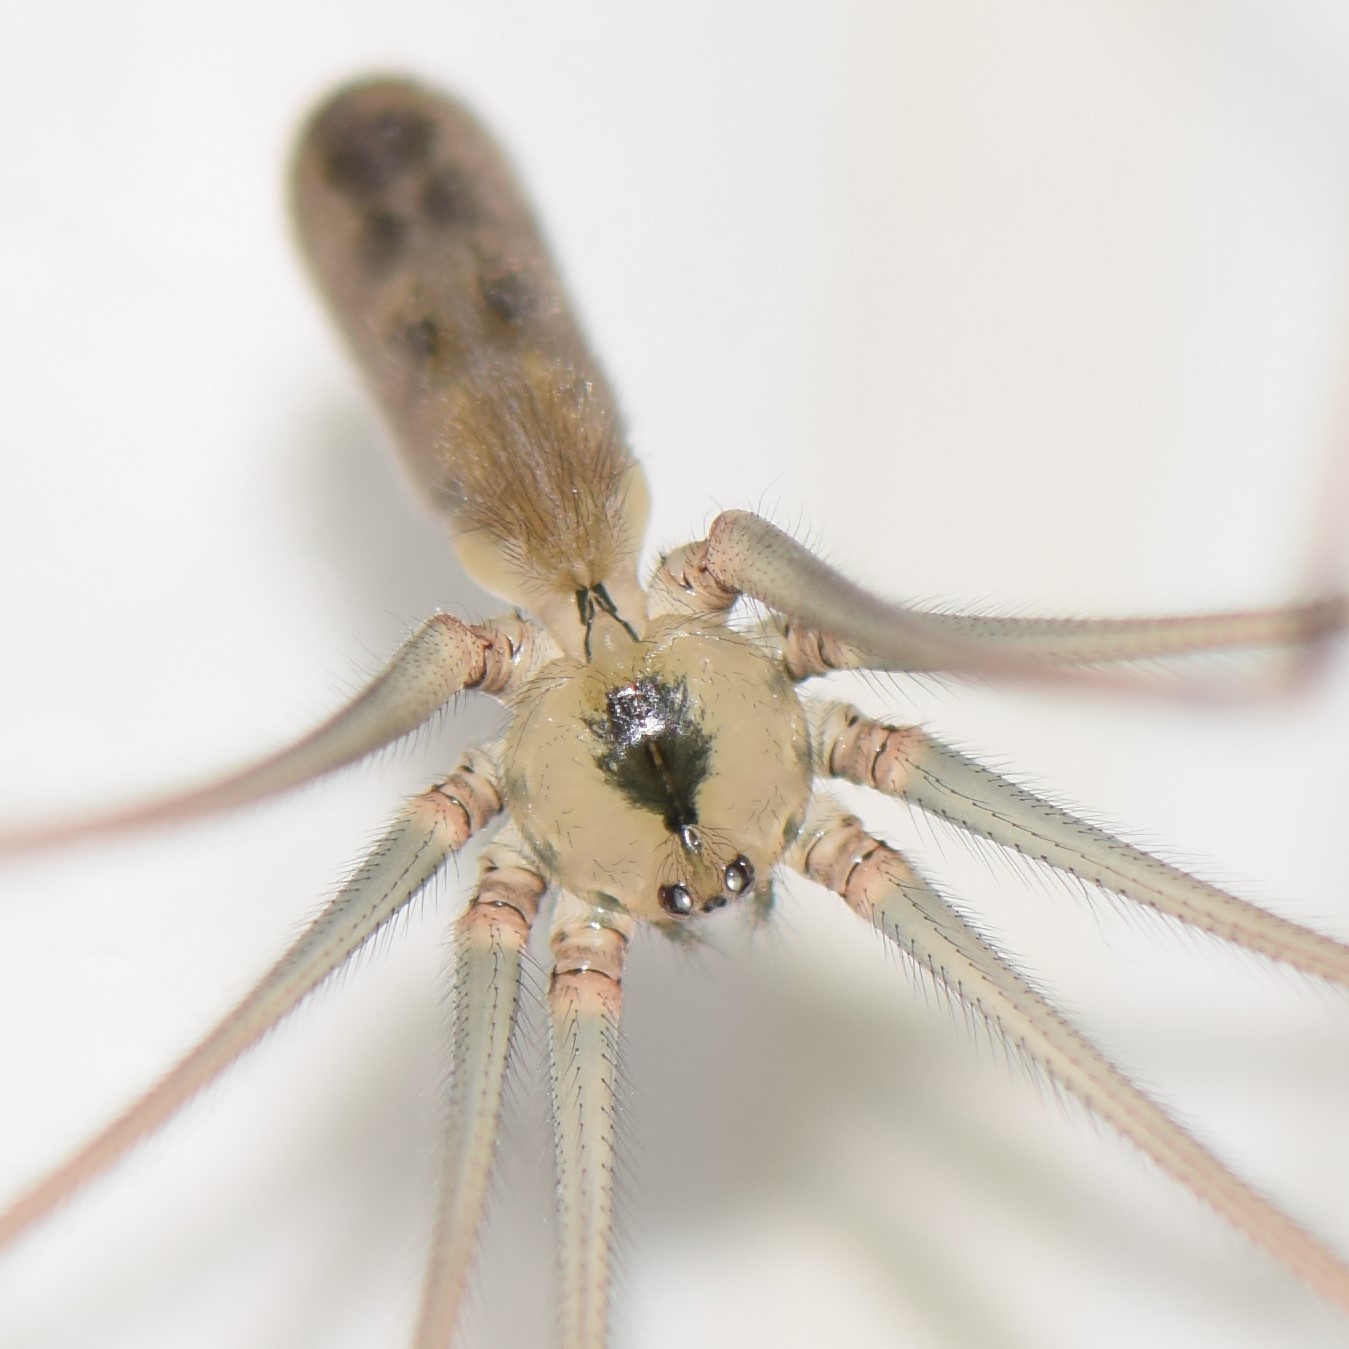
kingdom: Animalia
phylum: Arthropoda
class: Arachnida
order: Araneae
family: Pholcidae
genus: Pholcus
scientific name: Pholcus phalangioides
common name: Longbodied cellar spider
